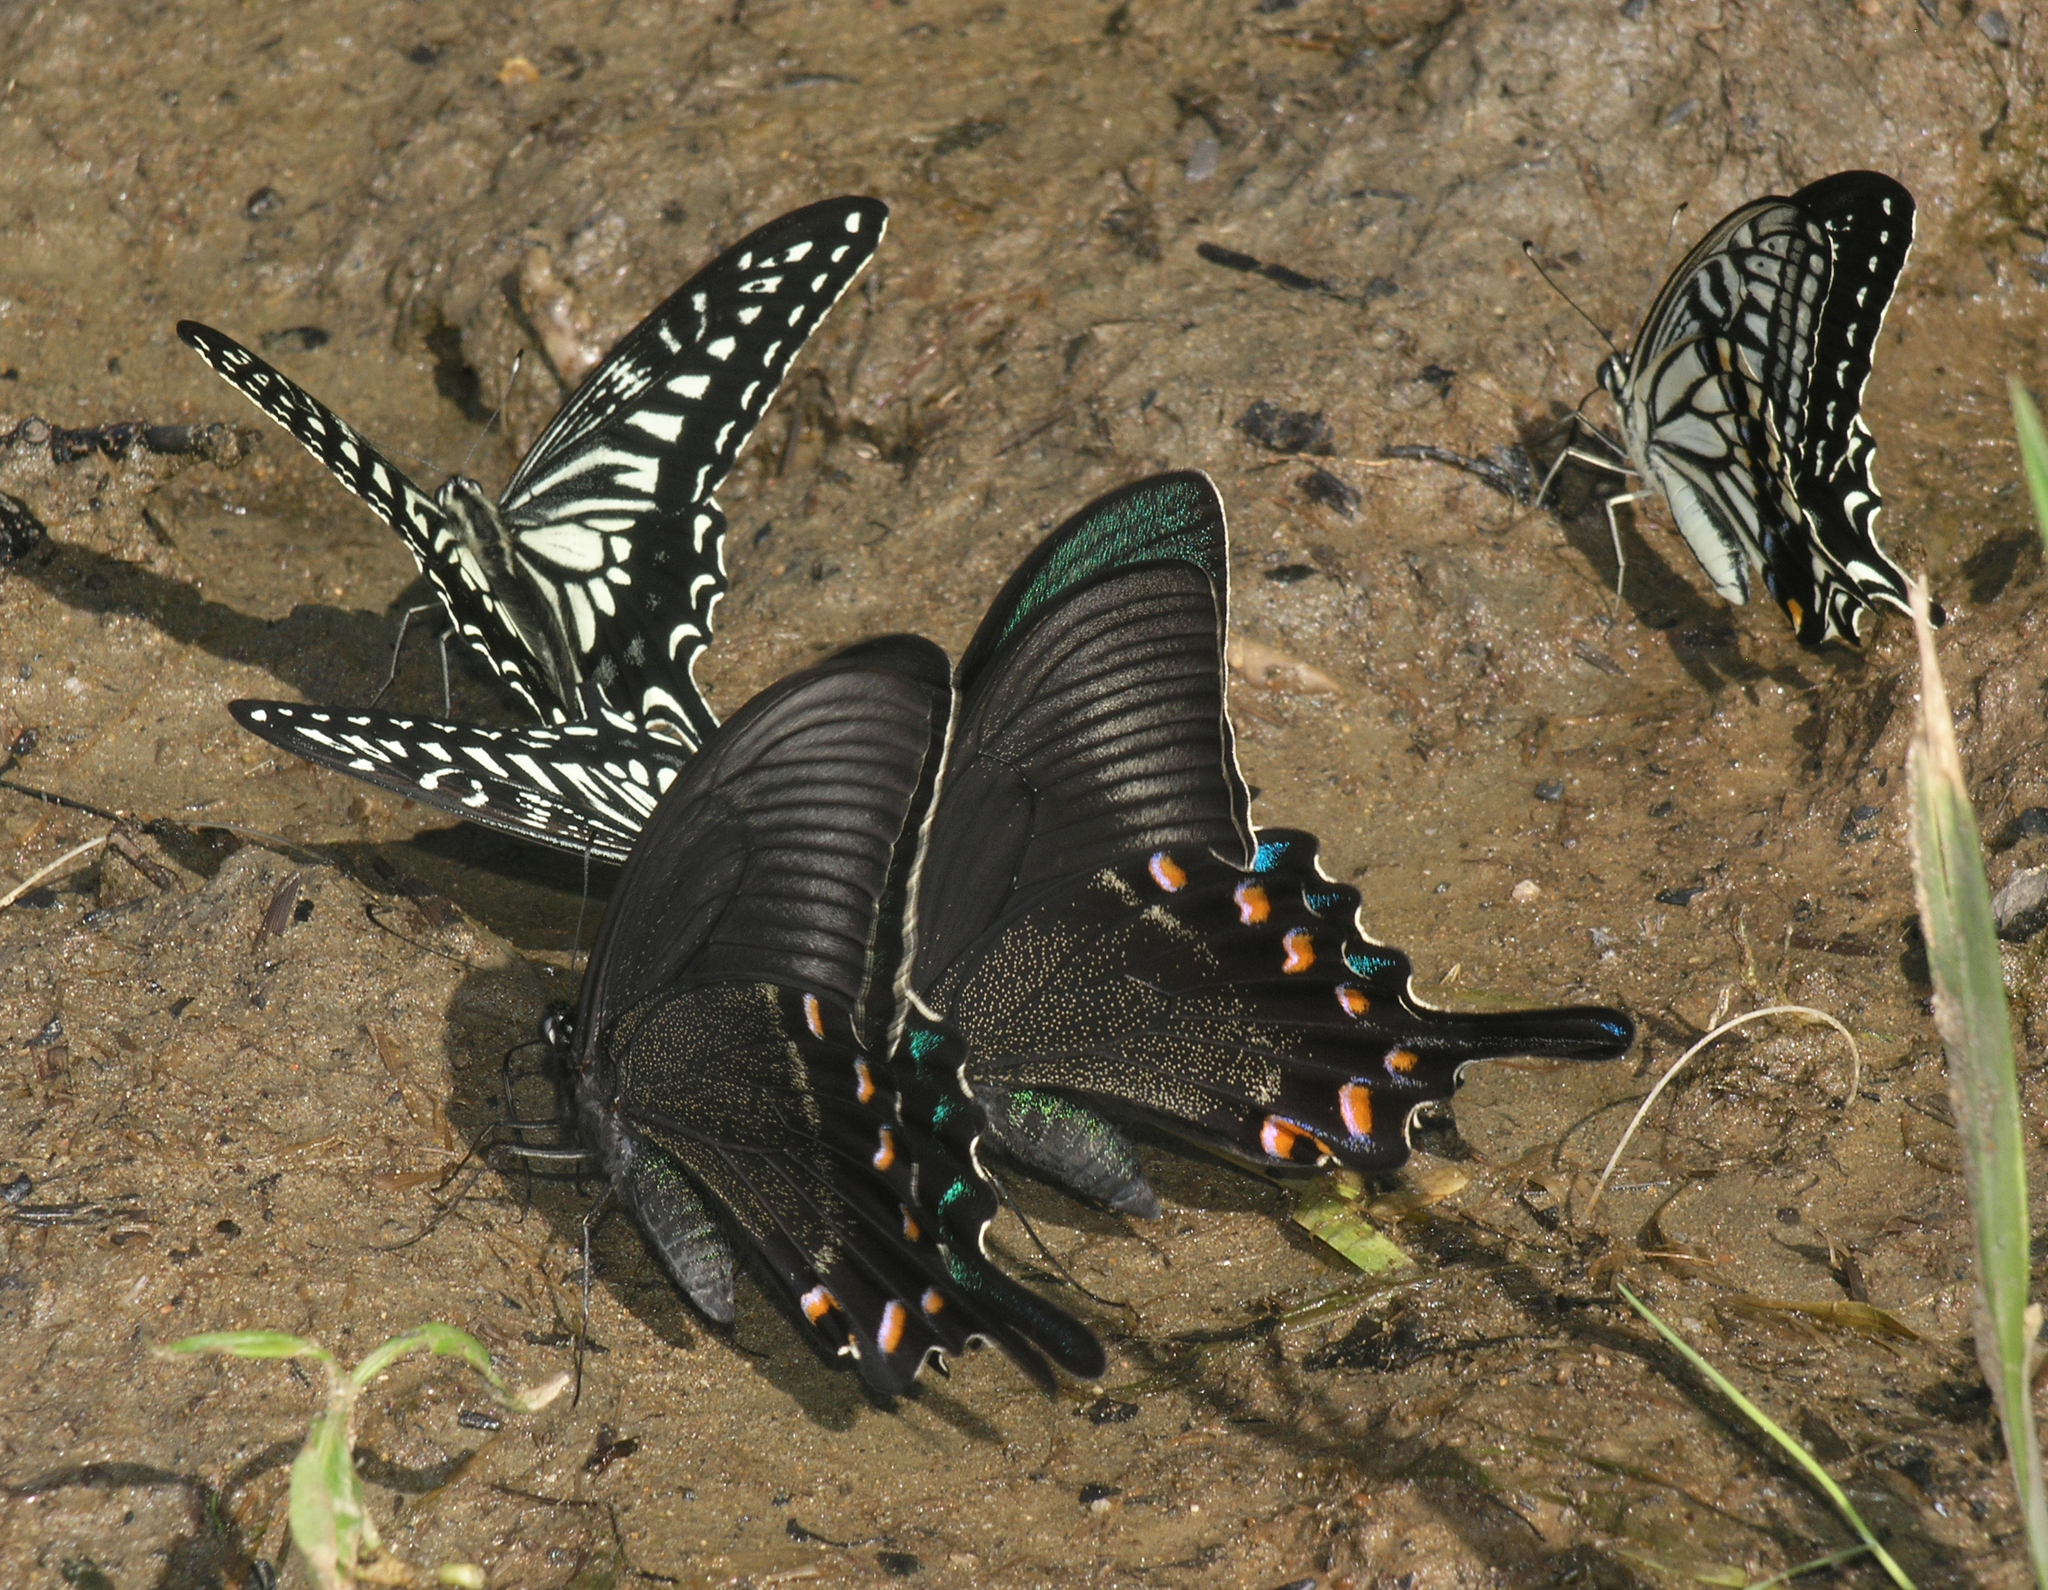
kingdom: Animalia
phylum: Arthropoda
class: Insecta
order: Lepidoptera
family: Papilionidae
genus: Papilio
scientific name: Papilio maackii
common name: Alpine black swallowtail
